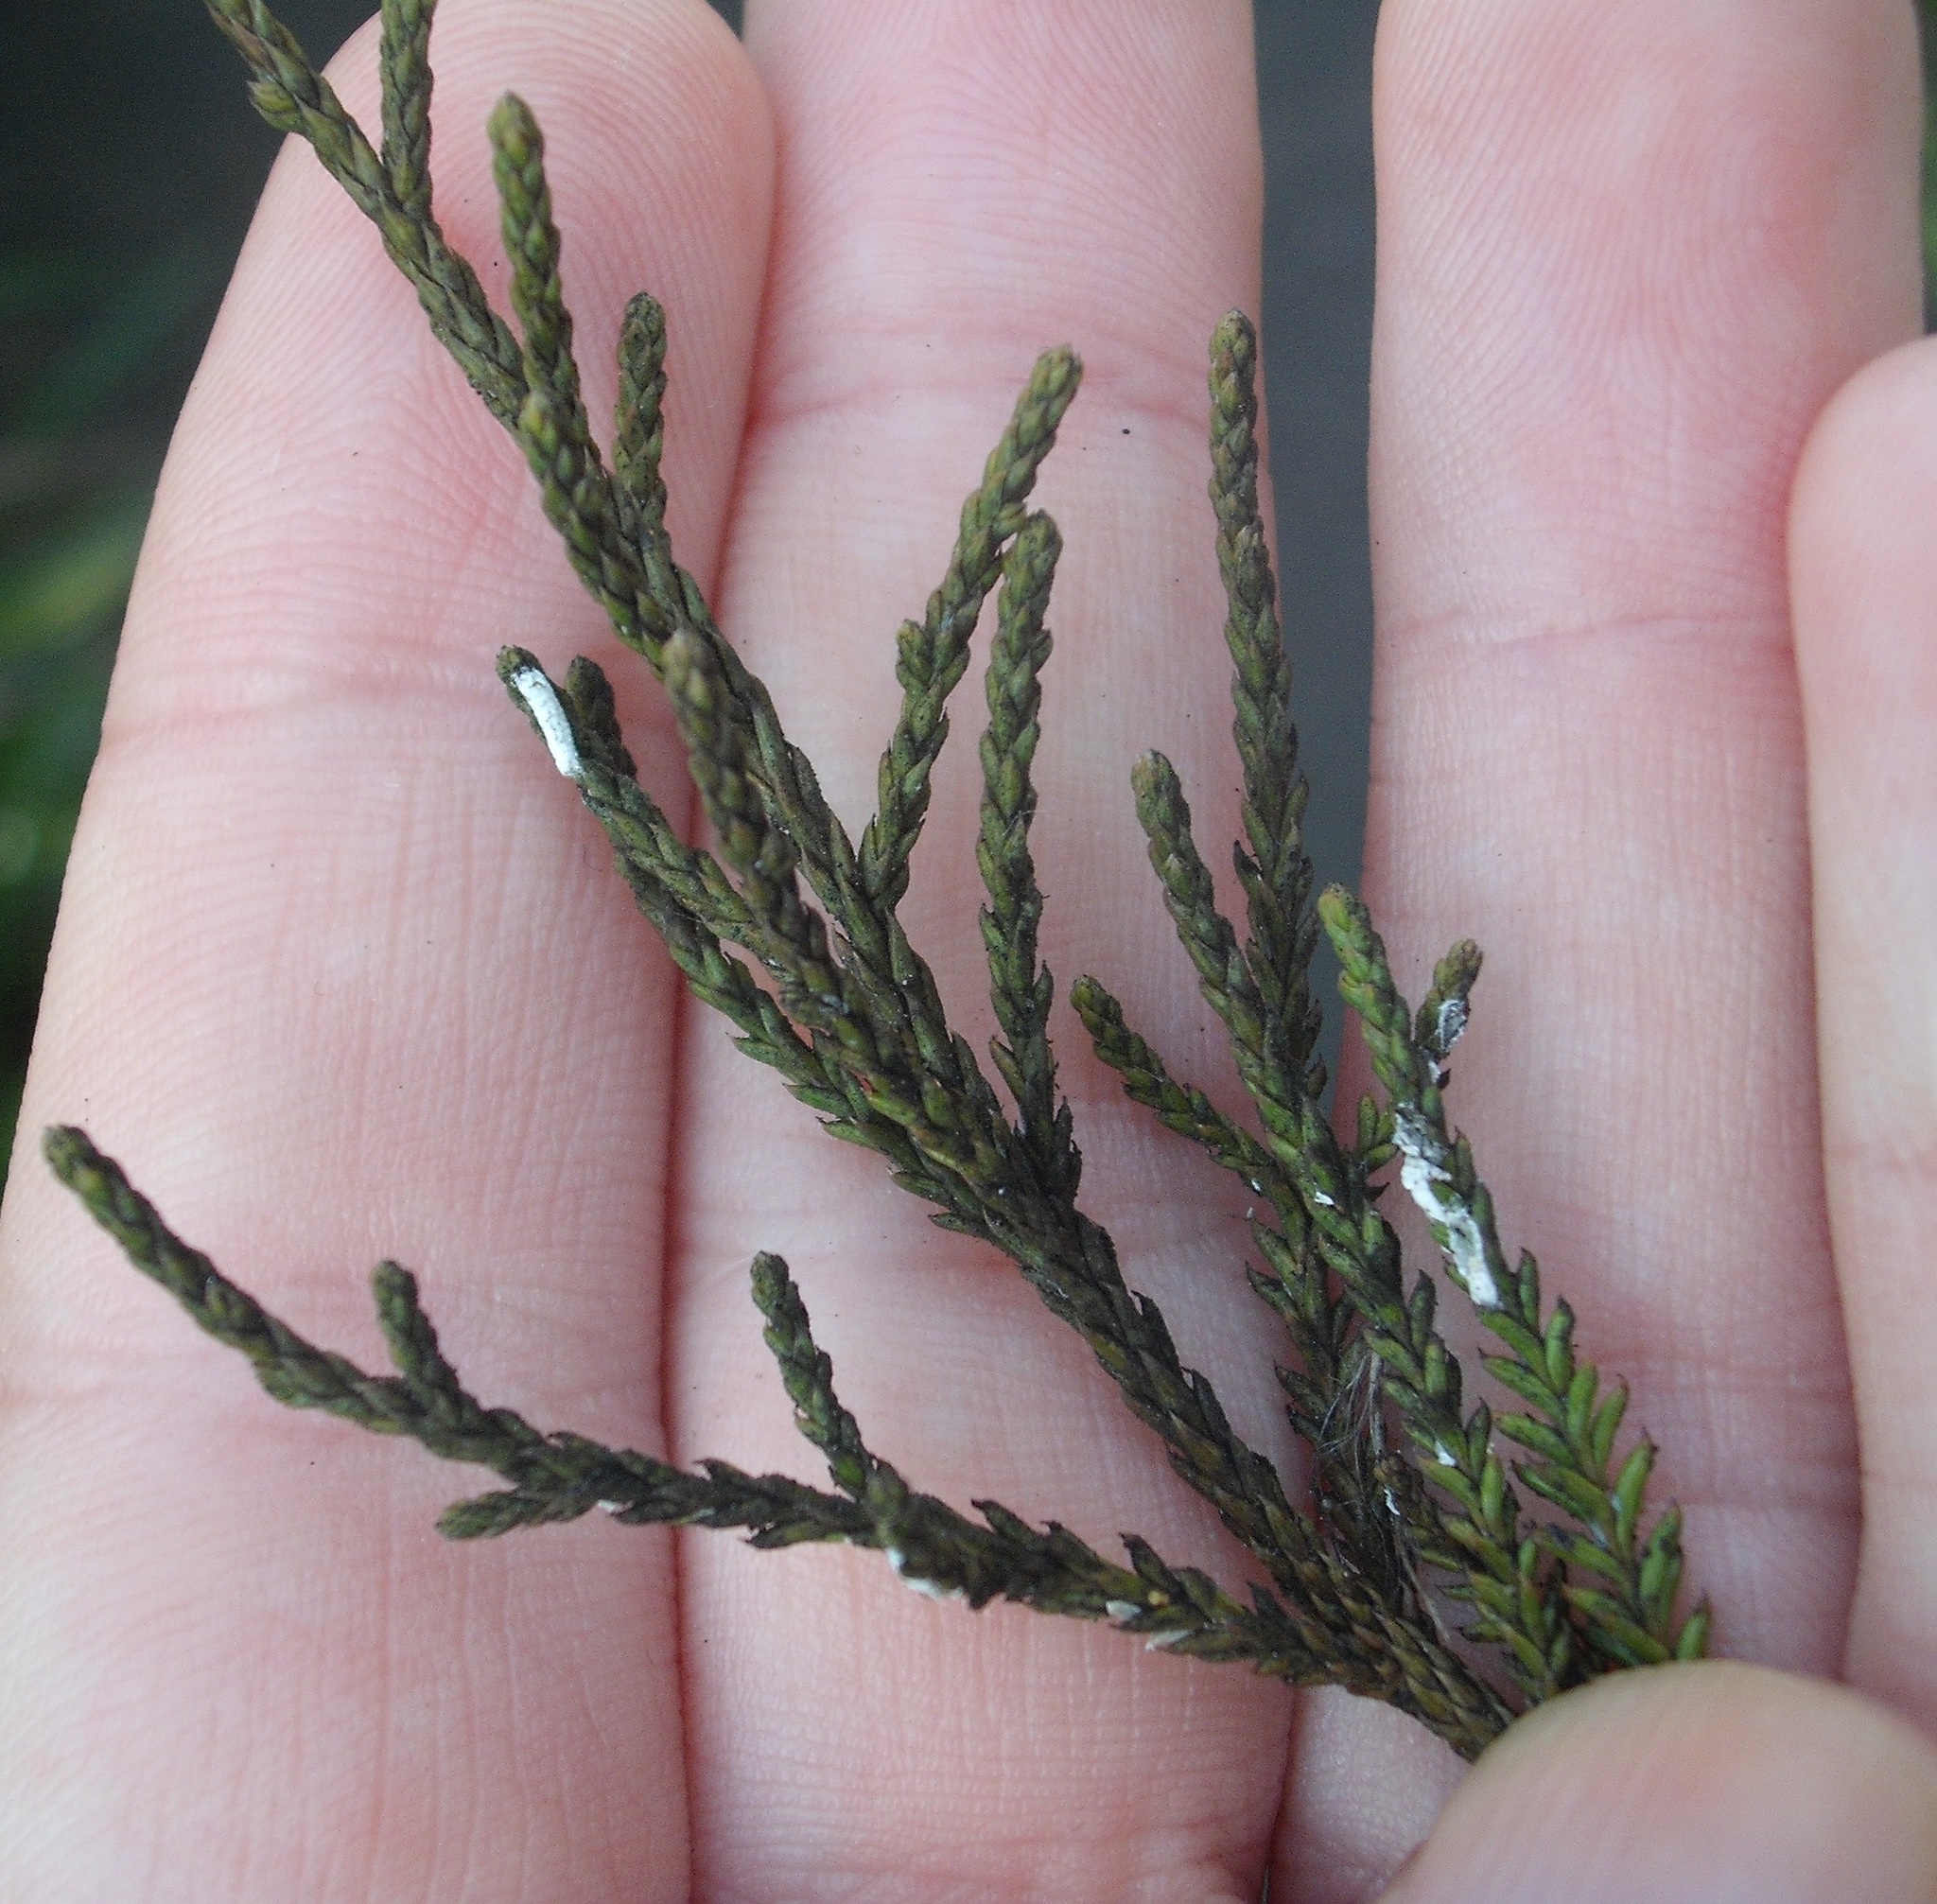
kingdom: Animalia
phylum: Arthropoda
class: Insecta
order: Hemiptera
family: Pseudococcidae
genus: Paraferrisia
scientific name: Paraferrisia podocarpi
